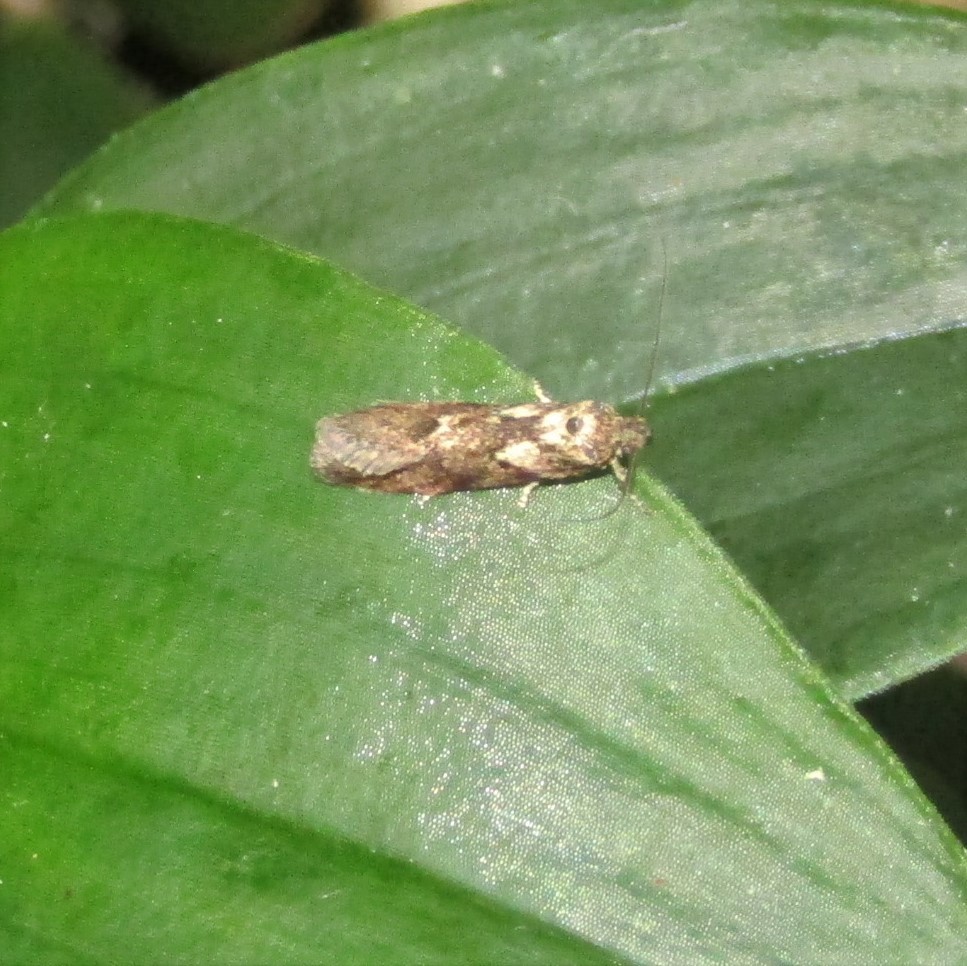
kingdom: Animalia
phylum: Arthropoda
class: Insecta
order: Lepidoptera
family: Oecophoridae
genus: Chersadaula
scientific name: Chersadaula ochrogastra
